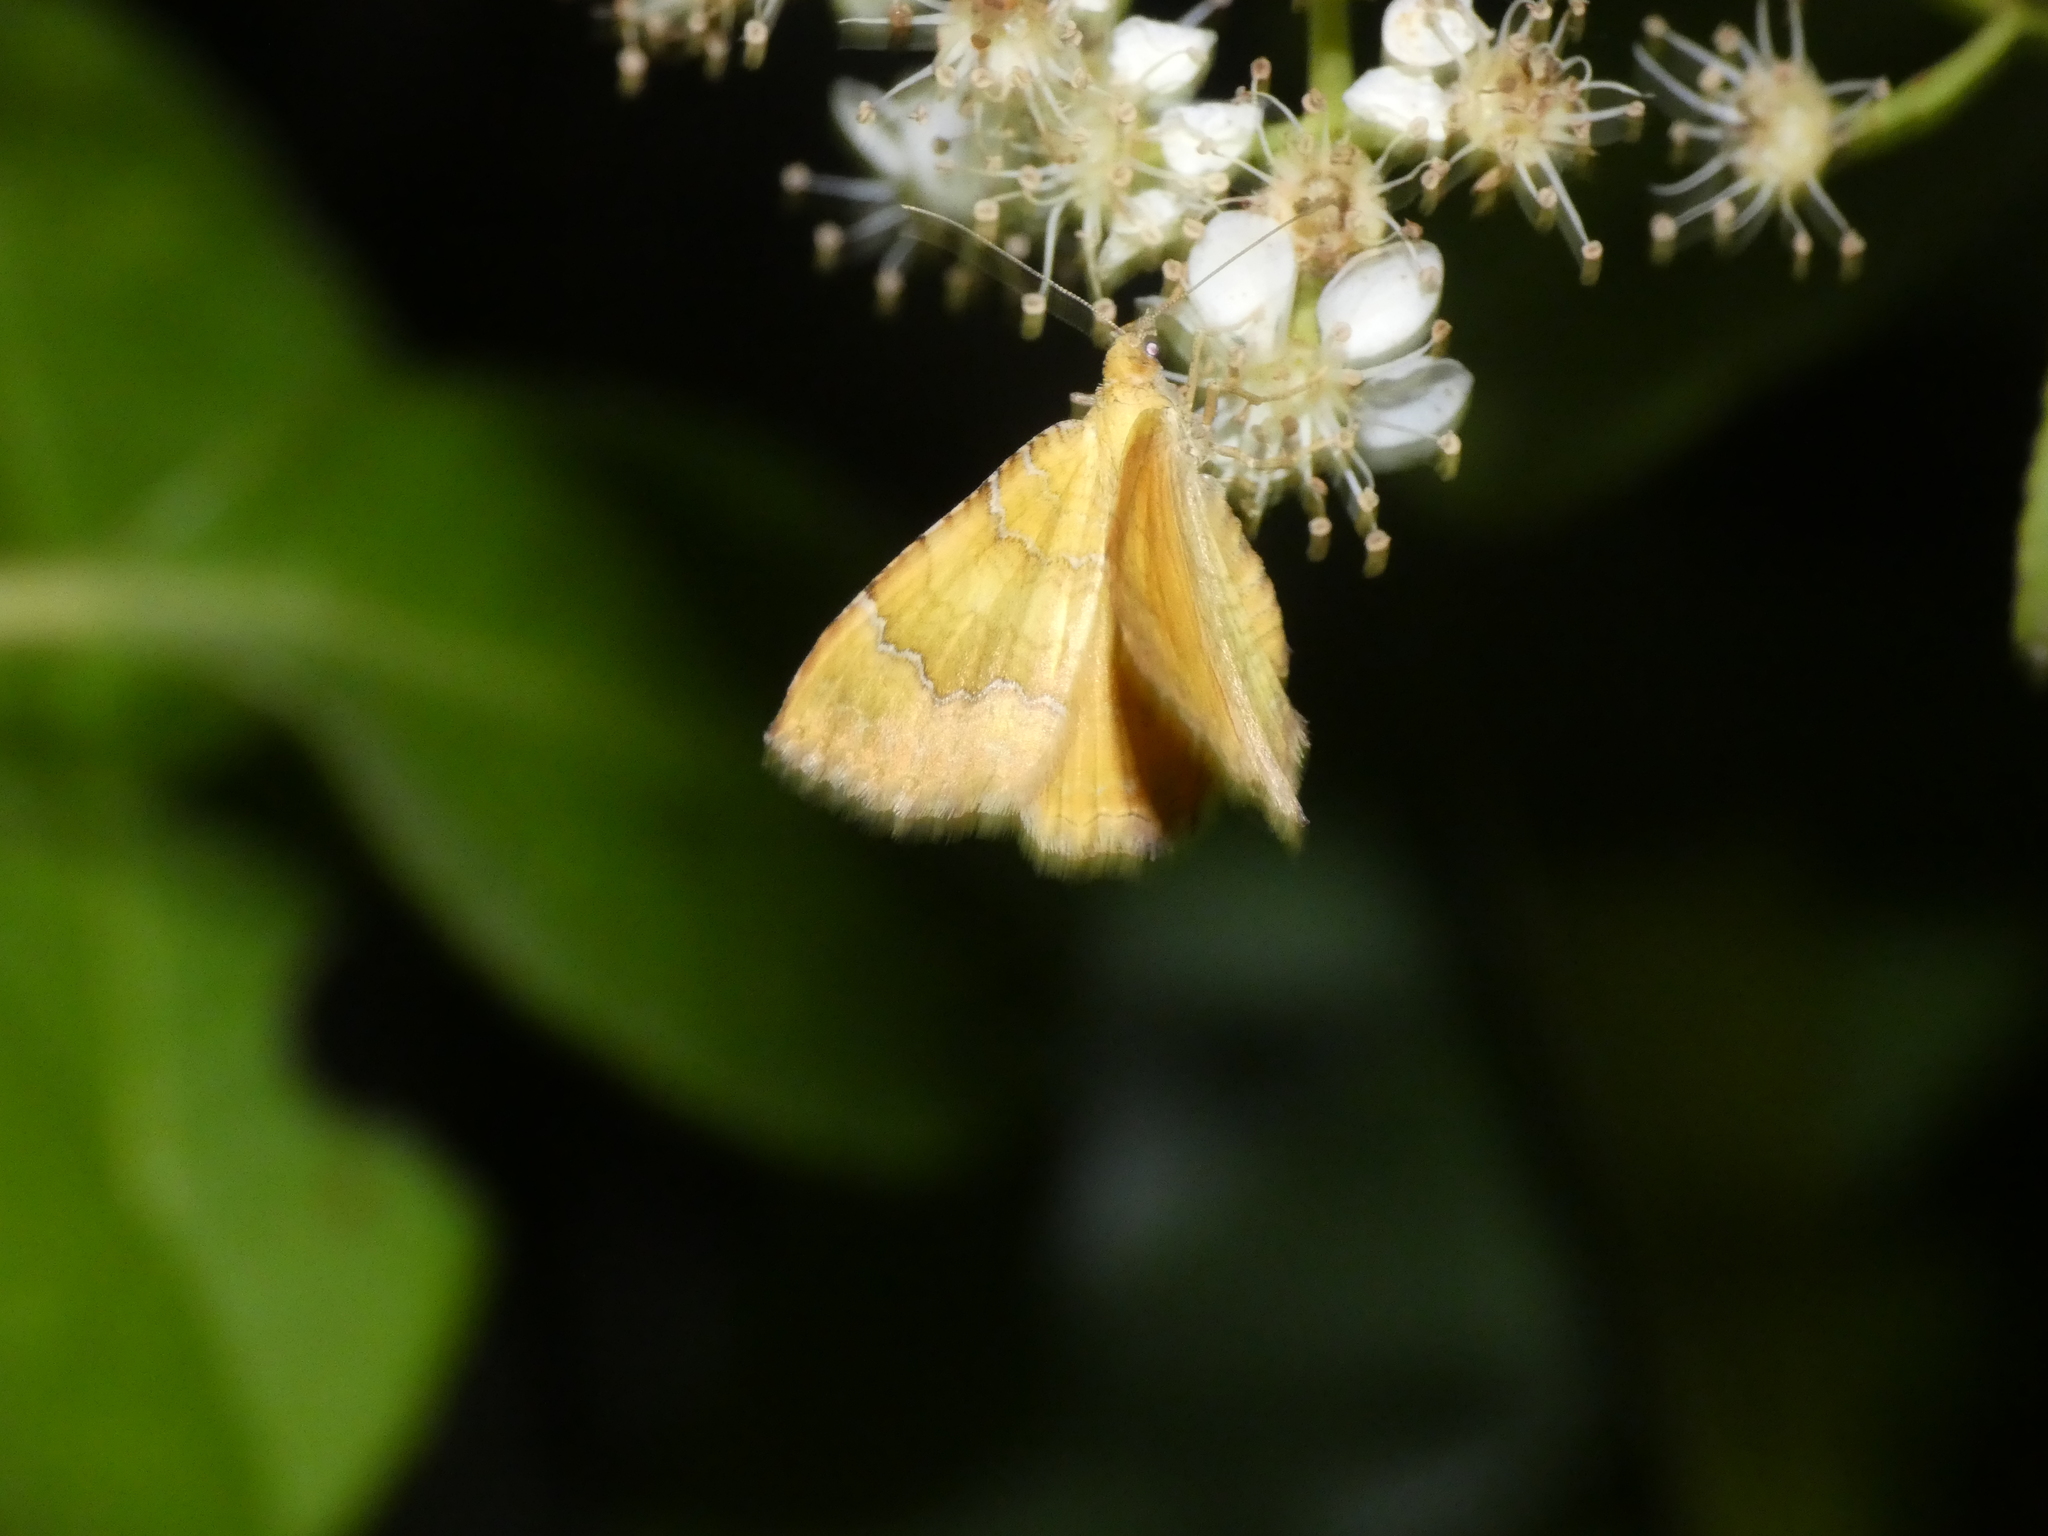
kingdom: Animalia
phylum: Arthropoda
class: Insecta
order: Lepidoptera
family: Geometridae
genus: Camptogramma
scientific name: Camptogramma bilineata
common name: Yellow shell
